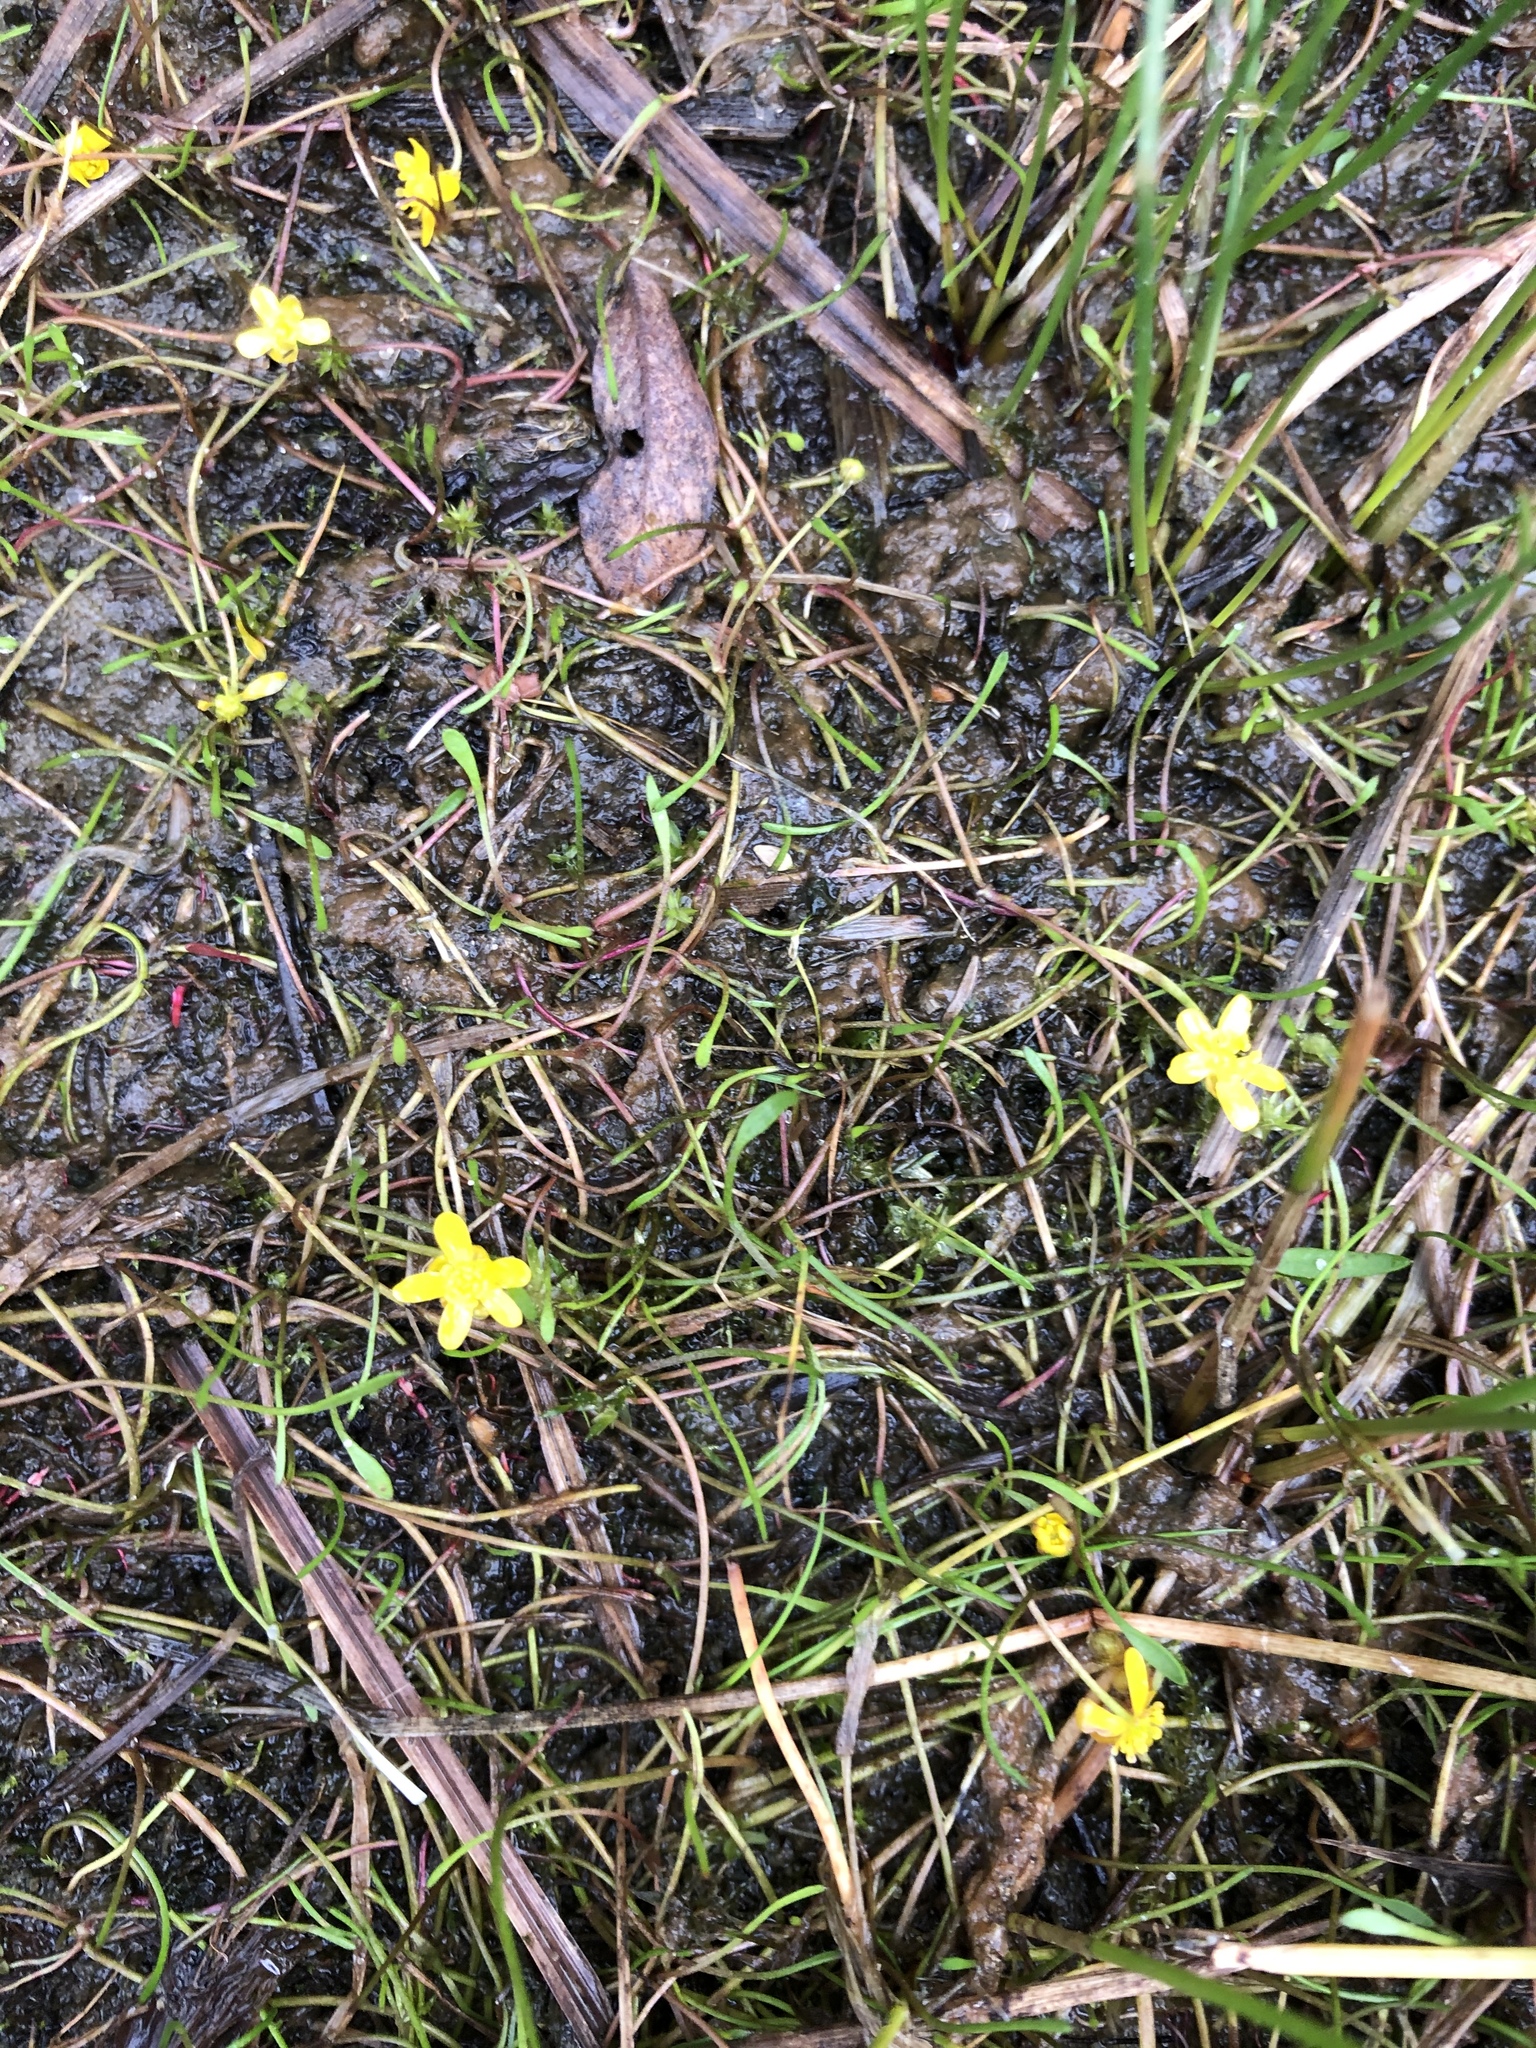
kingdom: Plantae
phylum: Tracheophyta
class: Magnoliopsida
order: Ranunculales
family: Ranunculaceae
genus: Ranunculus
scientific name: Ranunculus reptans
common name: Creeping spearwort
